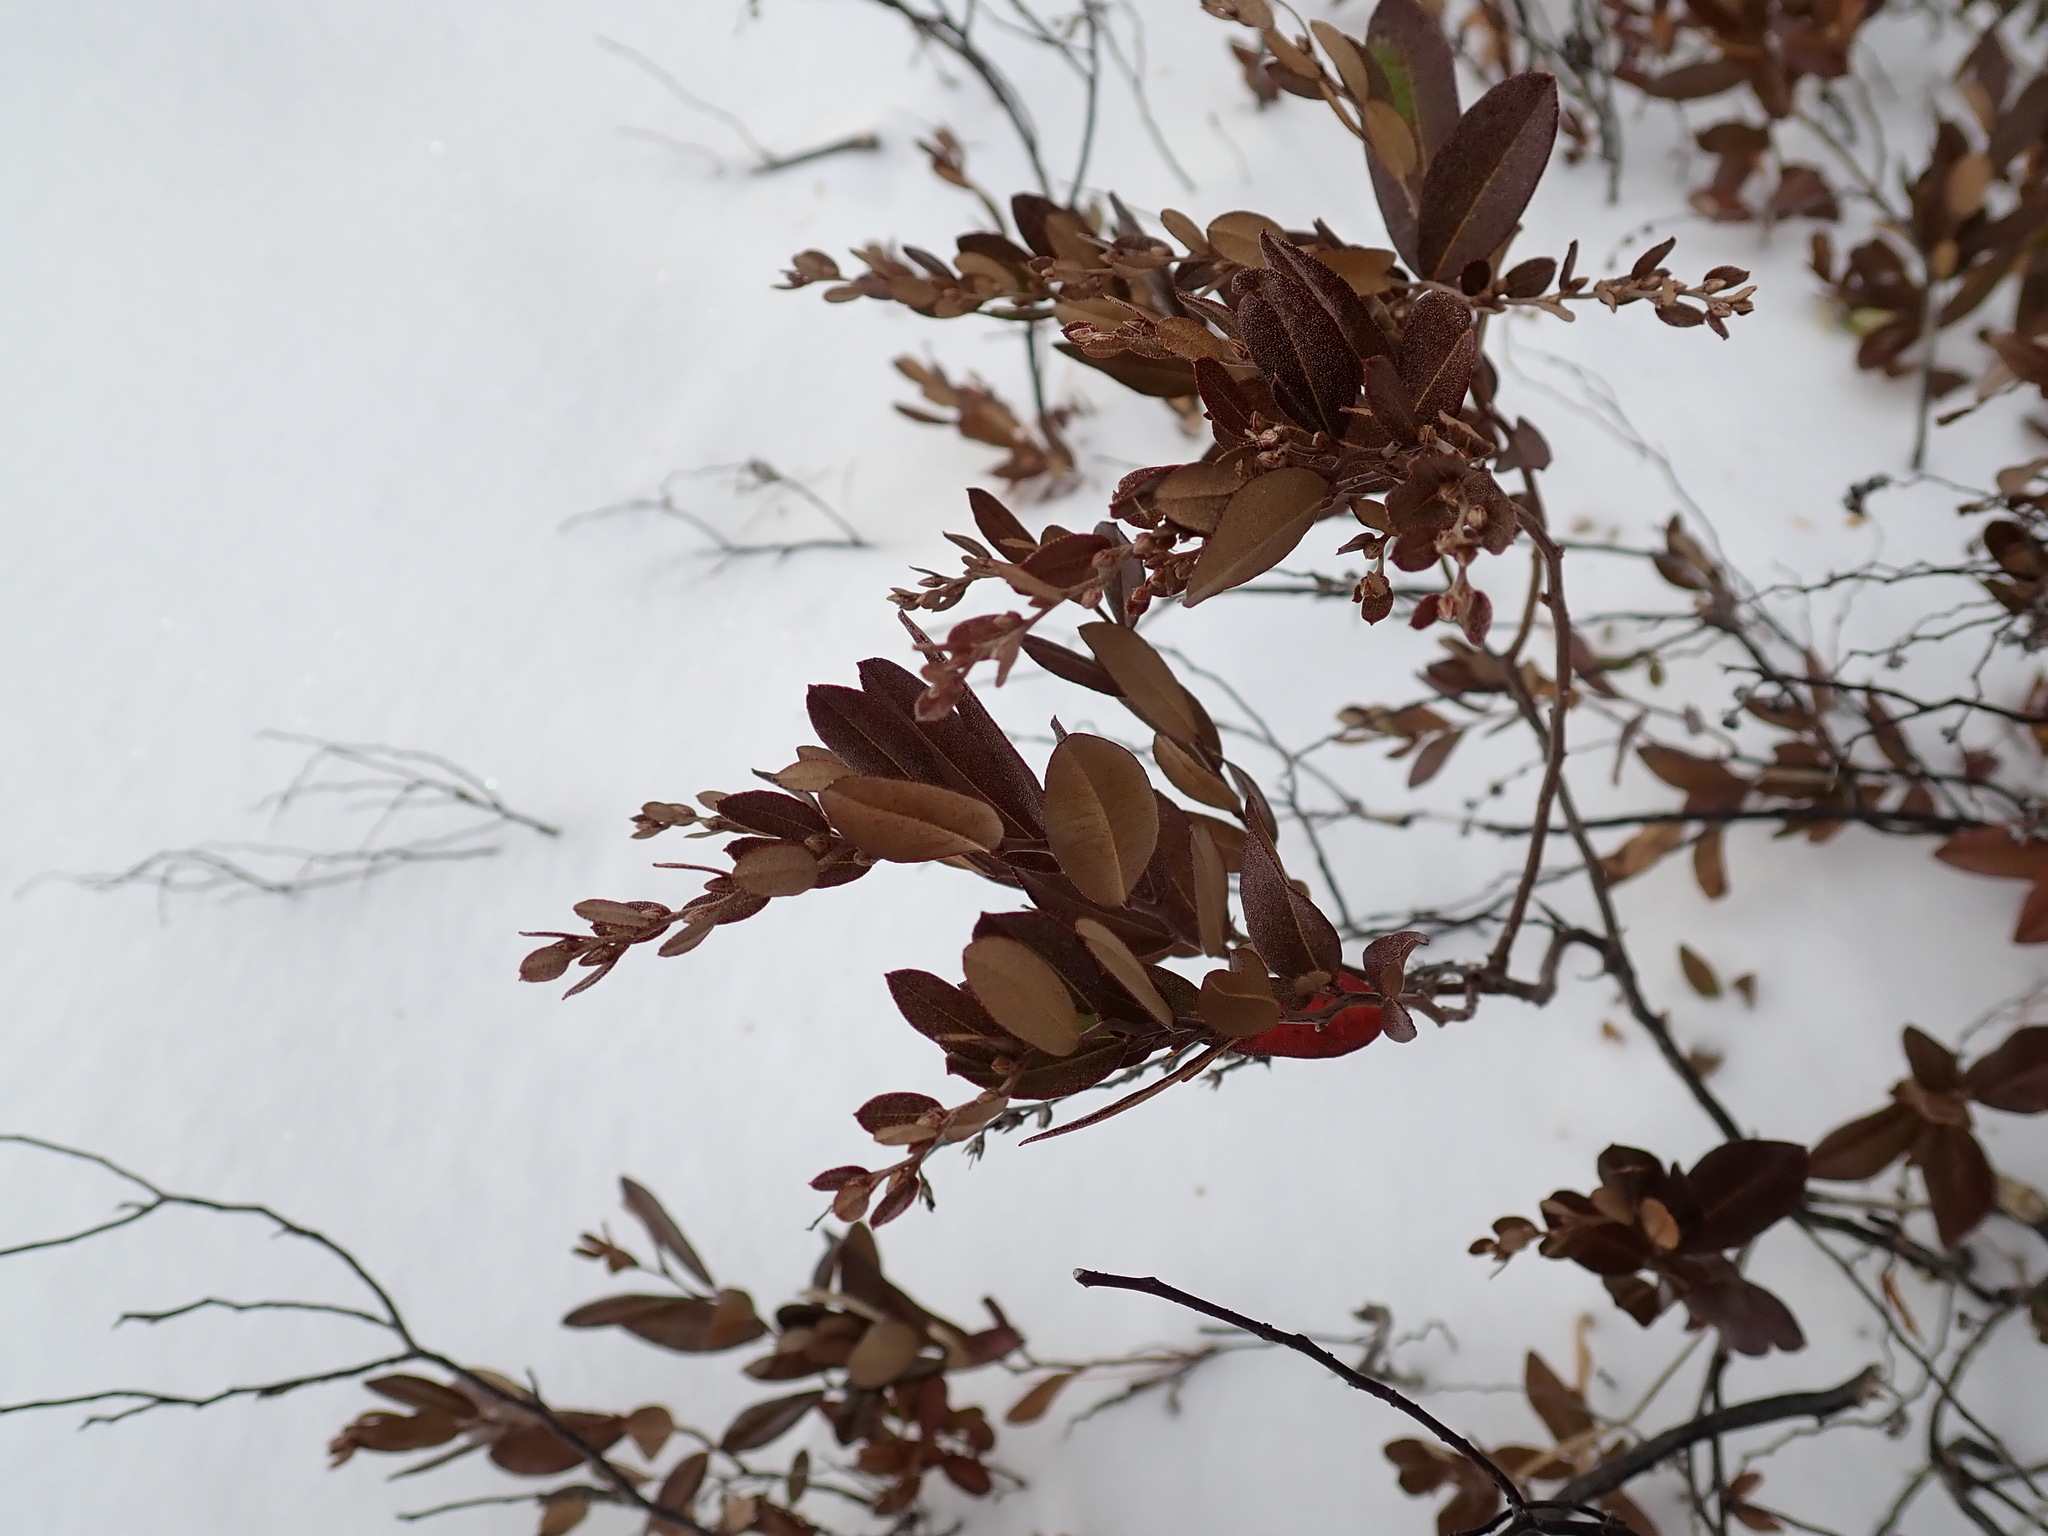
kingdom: Plantae
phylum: Tracheophyta
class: Magnoliopsida
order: Ericales
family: Ericaceae
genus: Chamaedaphne
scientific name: Chamaedaphne calyculata
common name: Leatherleaf
